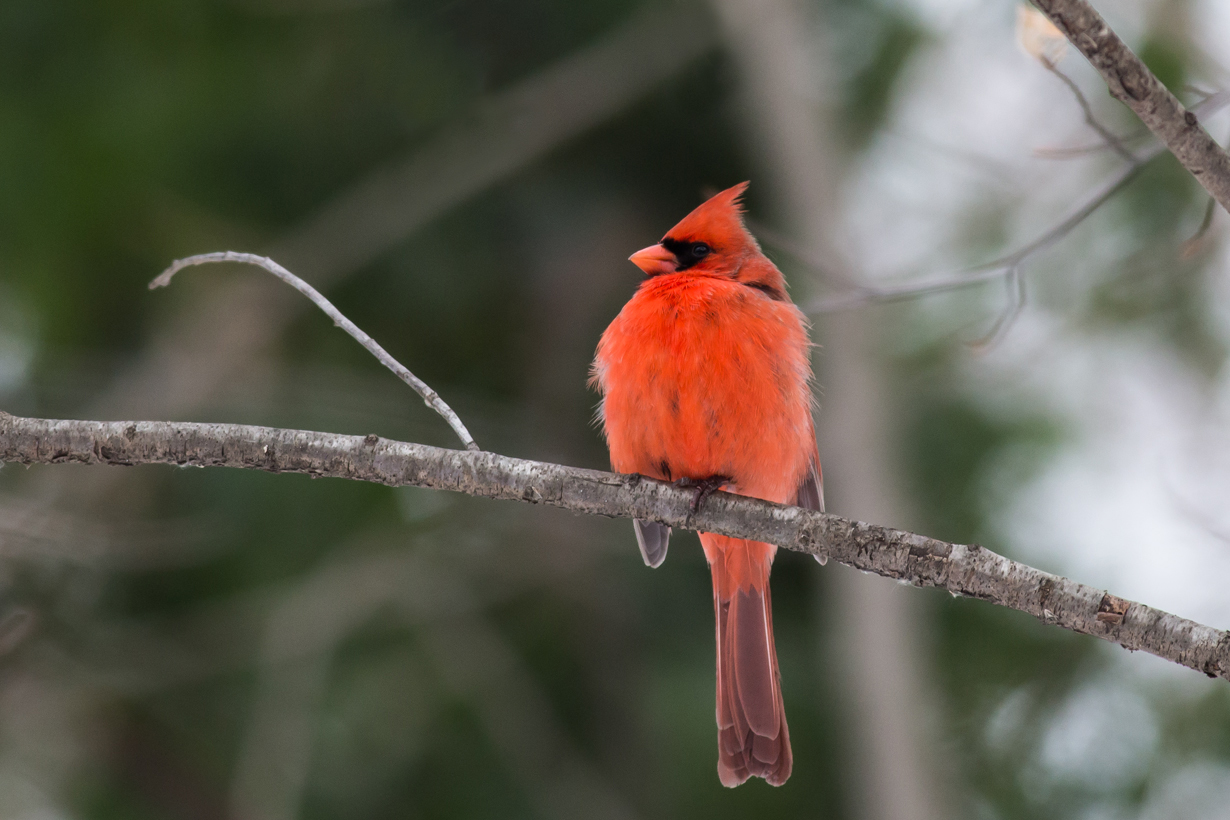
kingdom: Animalia
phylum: Chordata
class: Aves
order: Passeriformes
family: Cardinalidae
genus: Cardinalis
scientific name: Cardinalis cardinalis
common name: Northern cardinal
